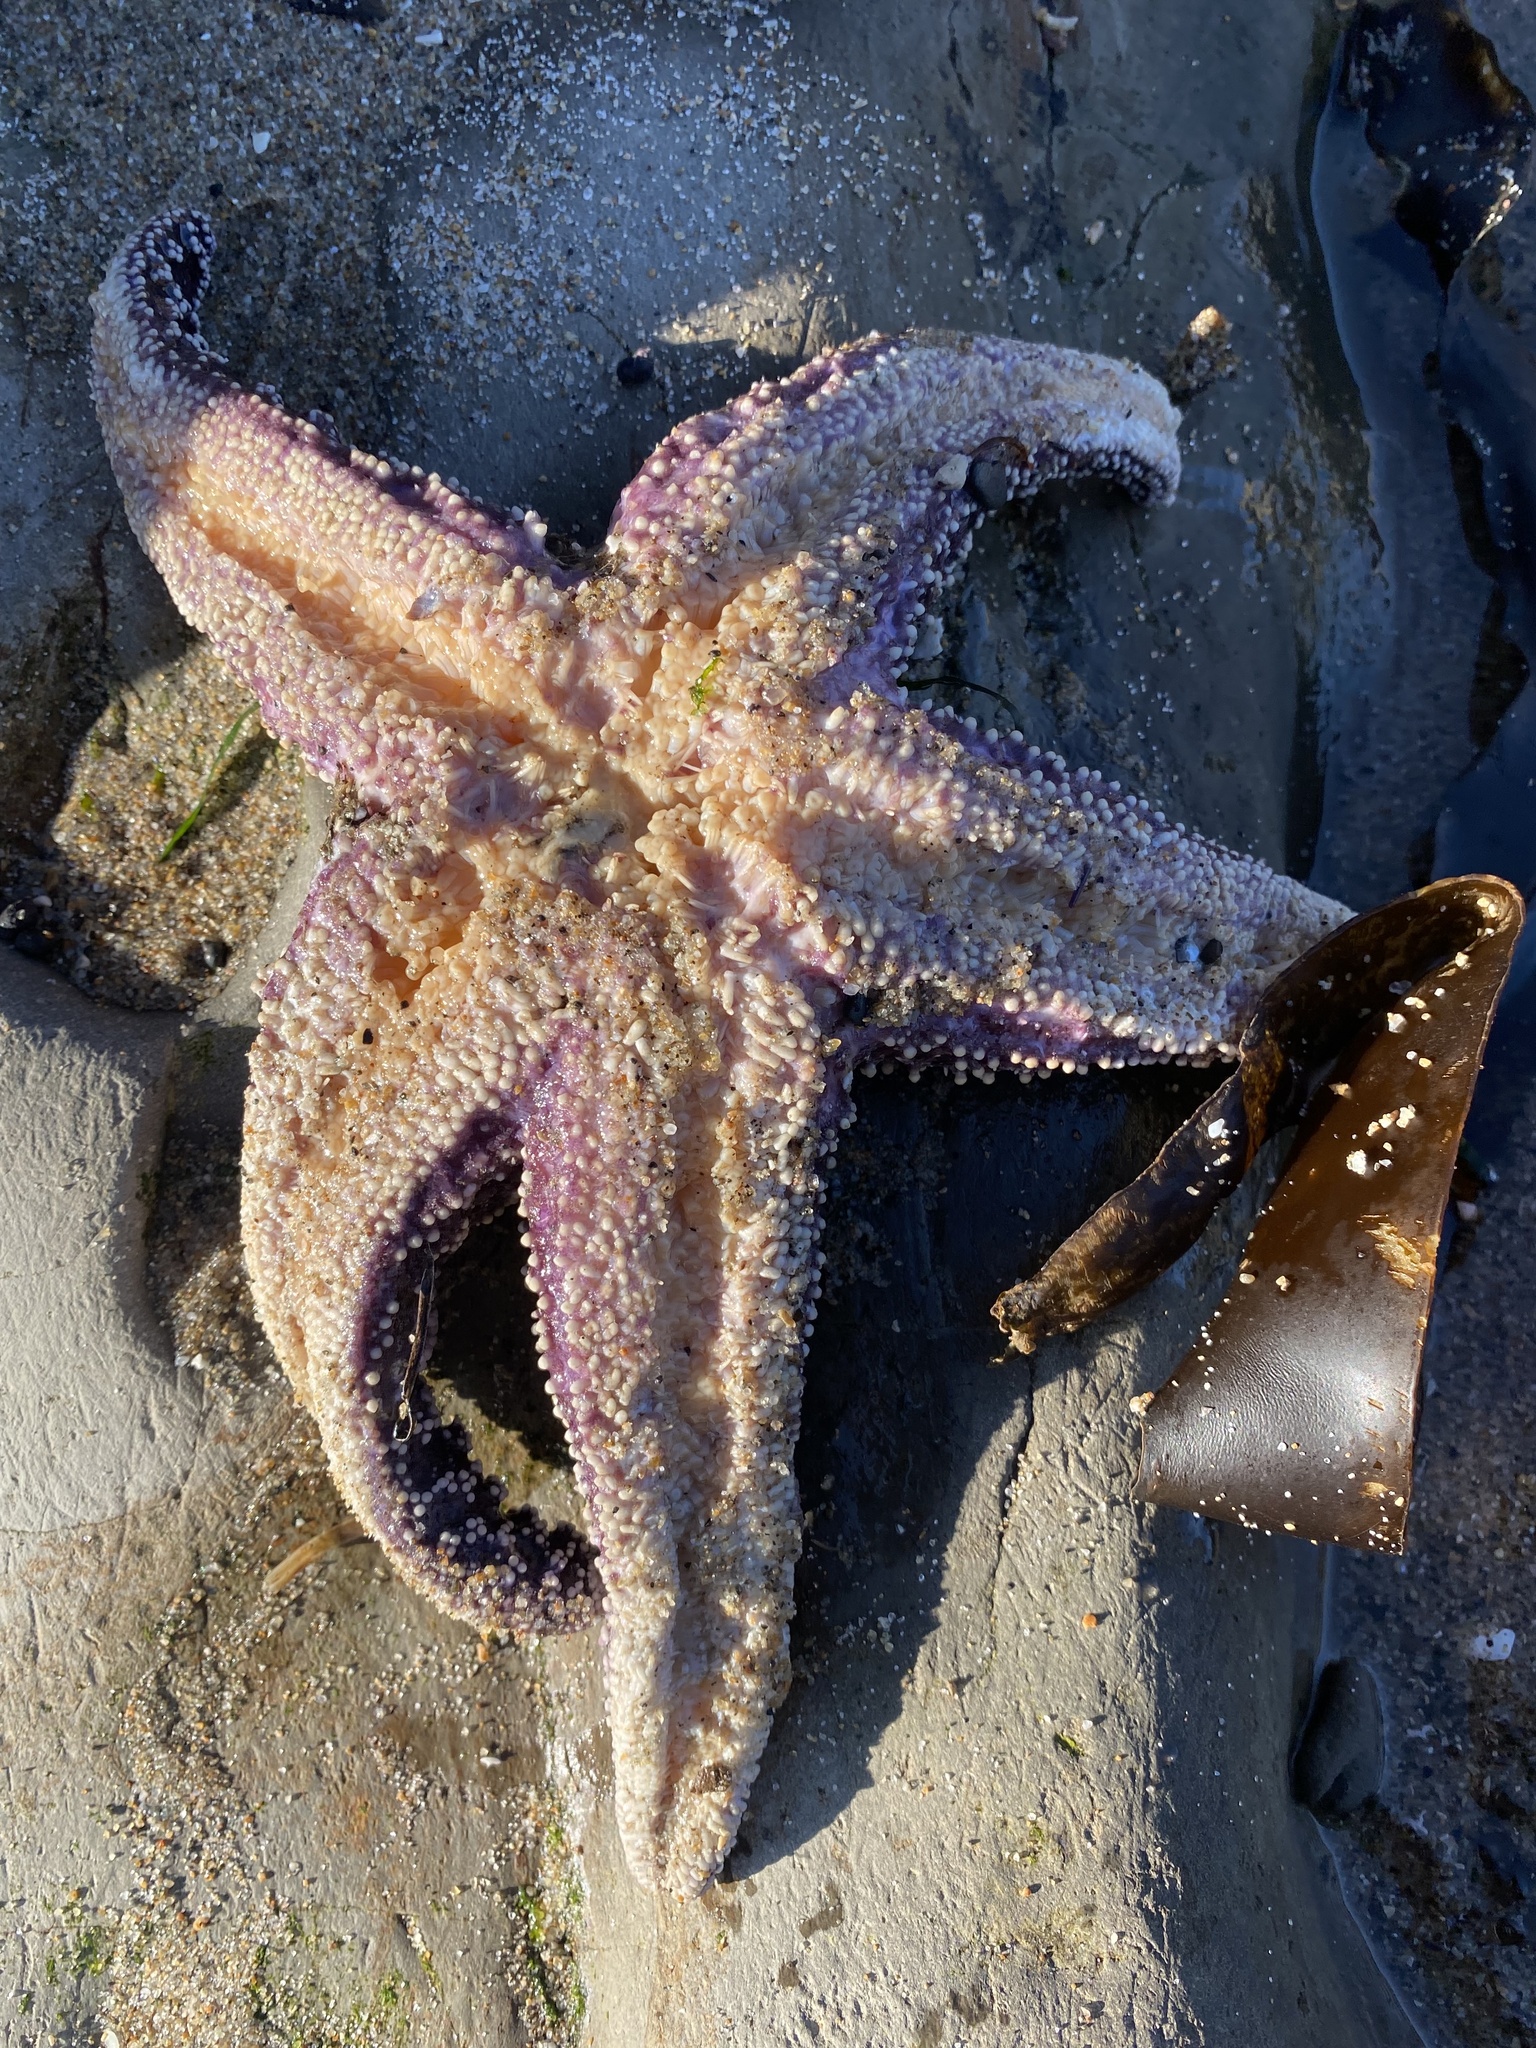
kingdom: Animalia
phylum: Echinodermata
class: Asteroidea
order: Forcipulatida
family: Asteriidae
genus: Pisaster
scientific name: Pisaster ochraceus
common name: Ochre stars
